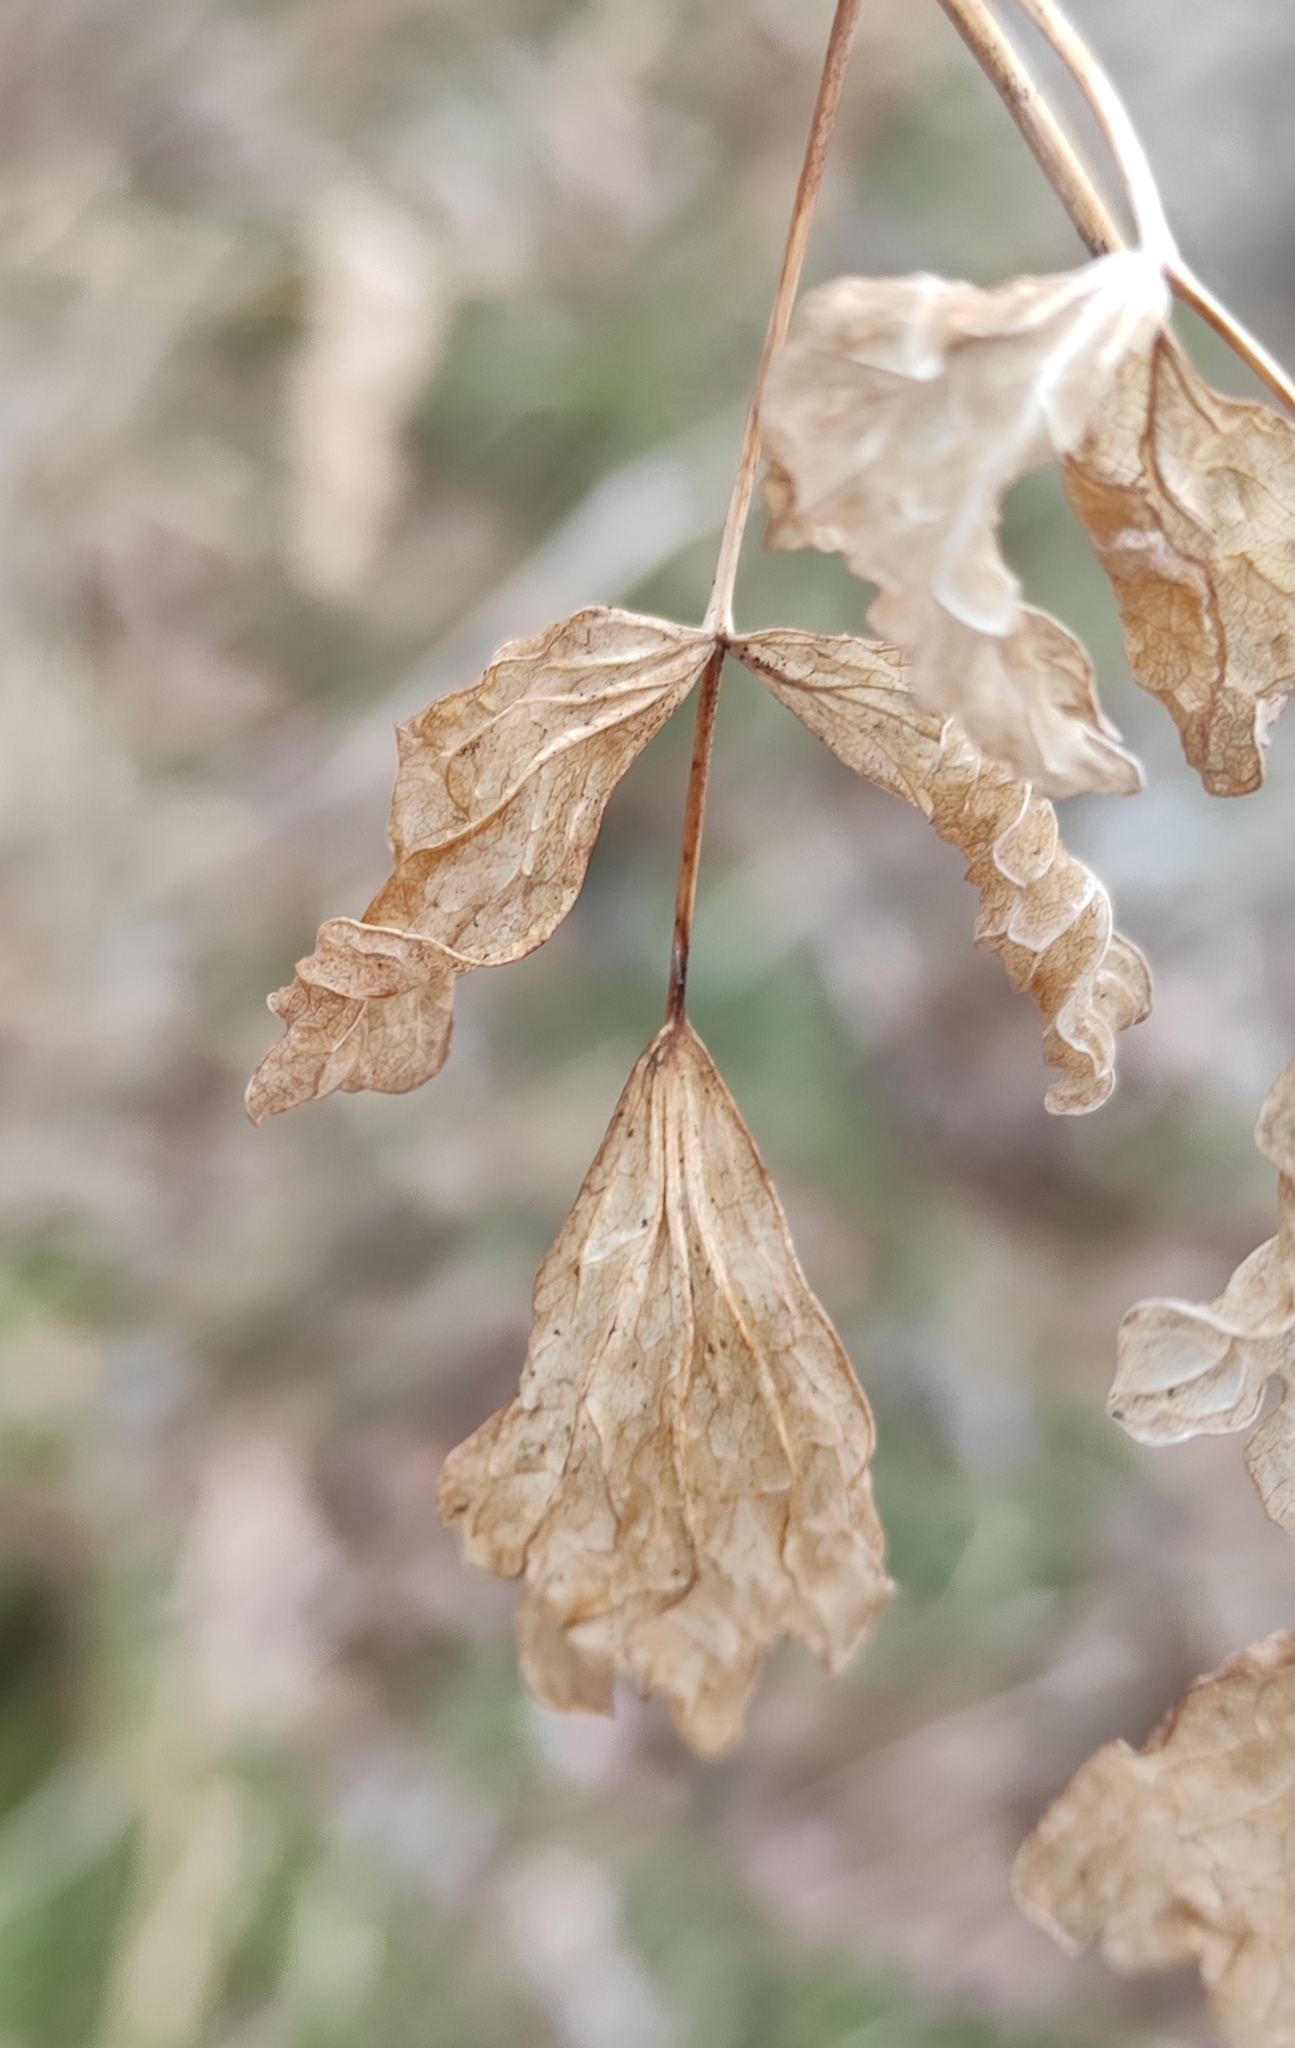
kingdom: Plantae
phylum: Tracheophyta
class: Magnoliopsida
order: Ranunculales
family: Ranunculaceae
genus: Thalictrum
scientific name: Thalictrum minus
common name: Lesser meadow-rue
